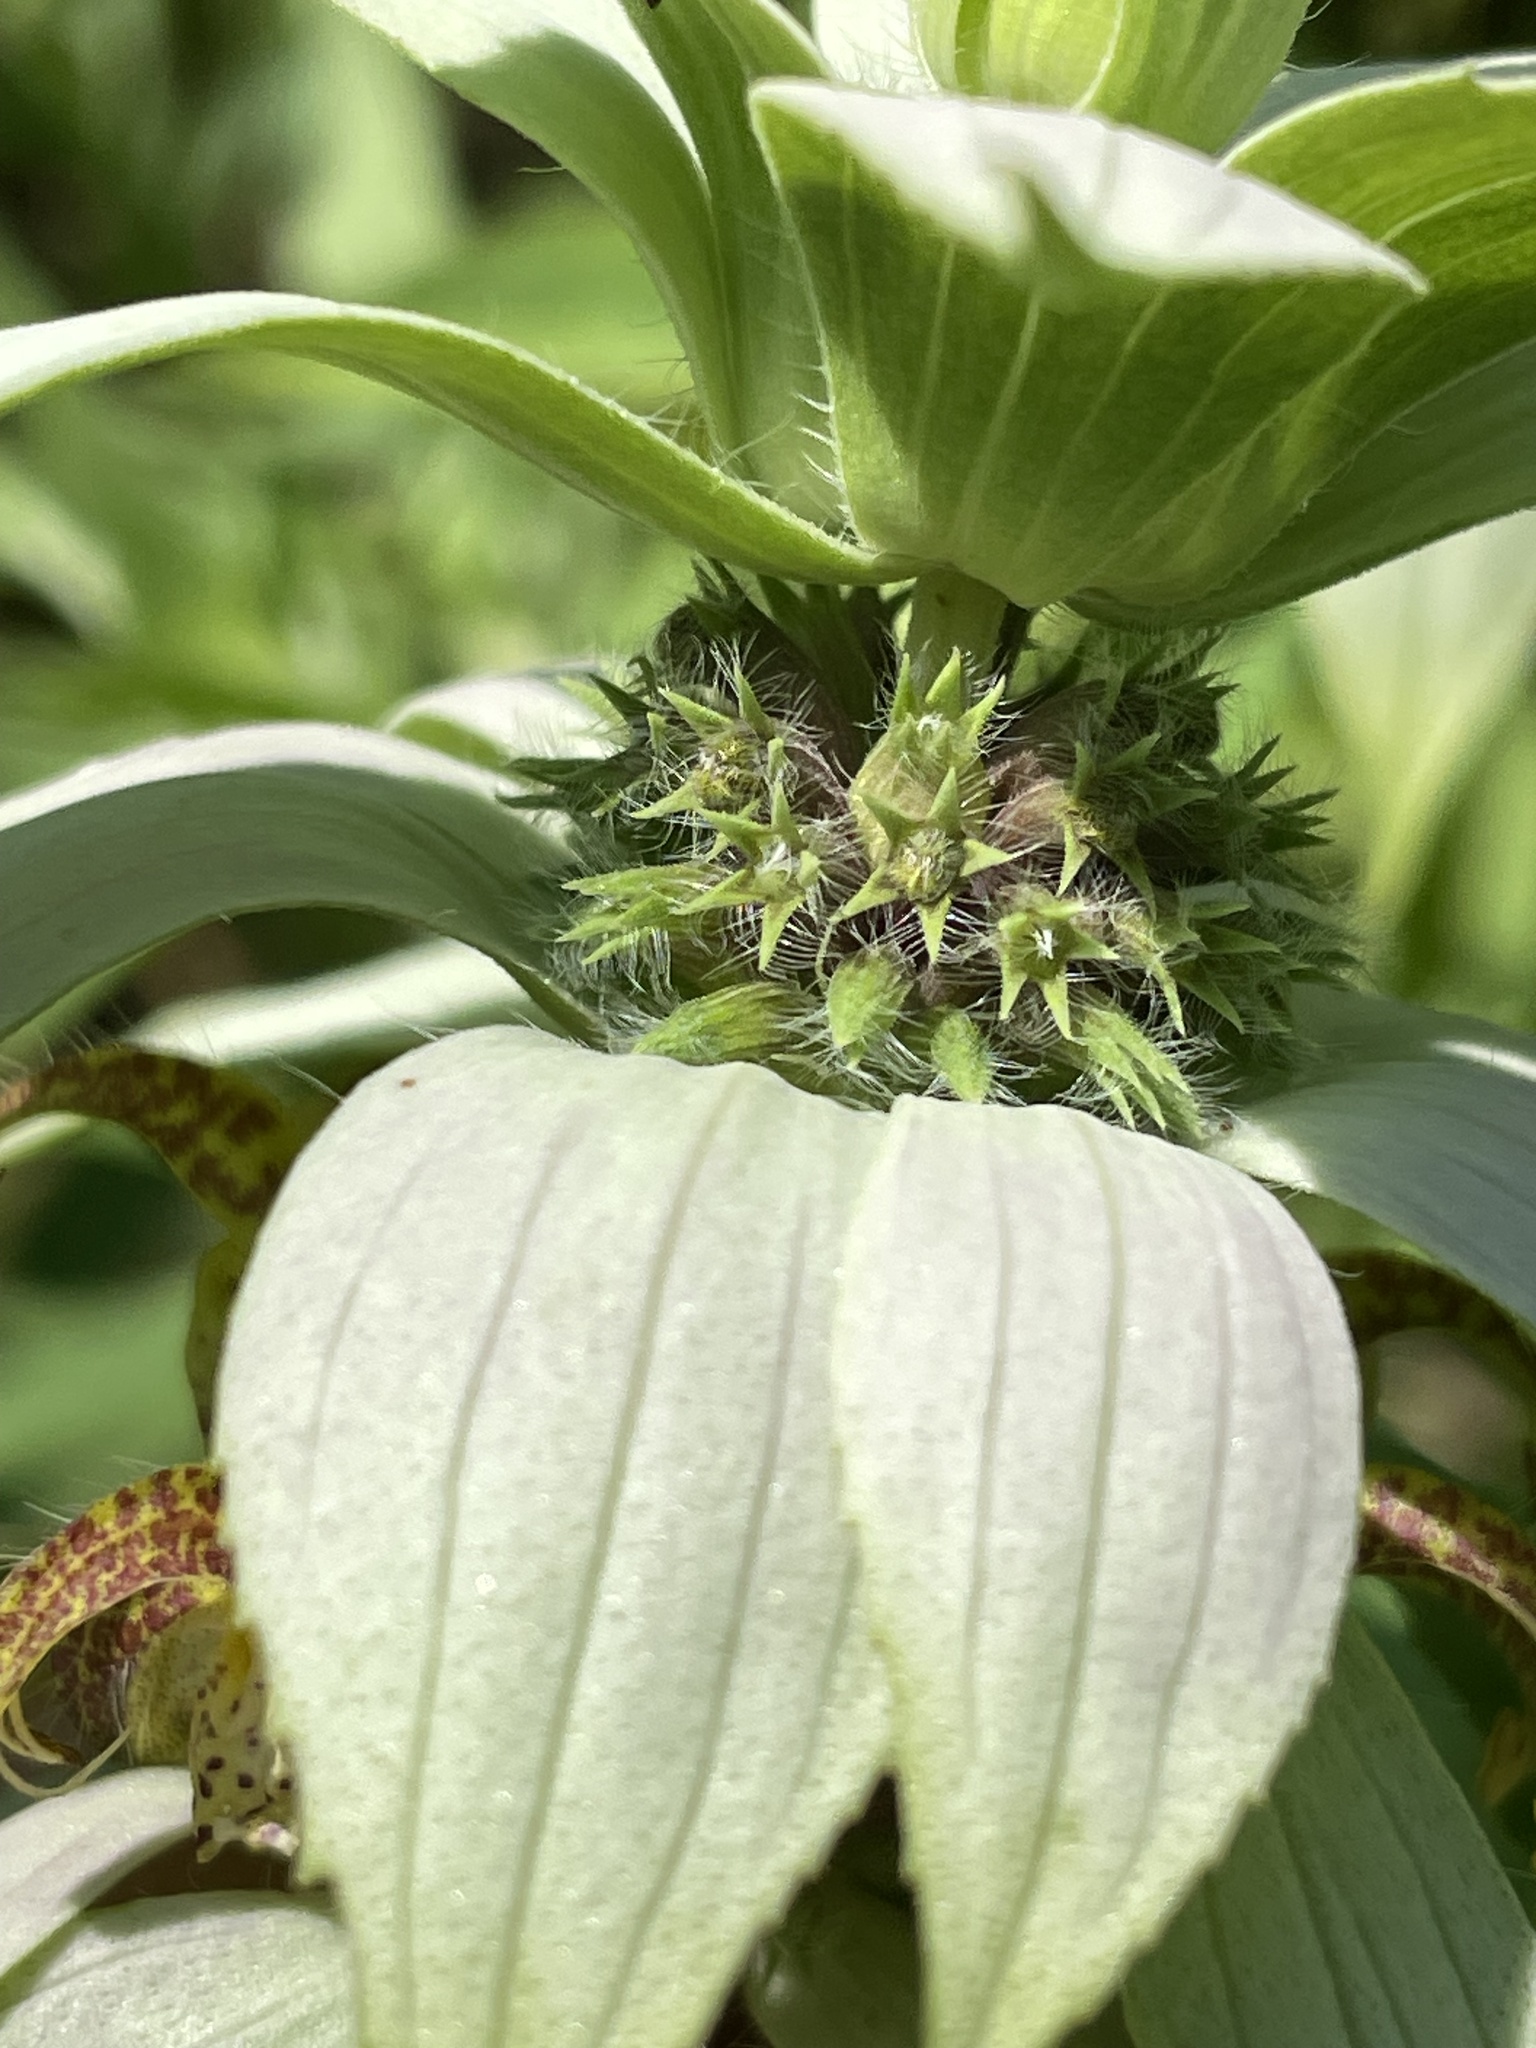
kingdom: Plantae
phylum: Tracheophyta
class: Magnoliopsida
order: Lamiales
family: Lamiaceae
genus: Monarda
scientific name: Monarda punctata
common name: Dotted monarda
